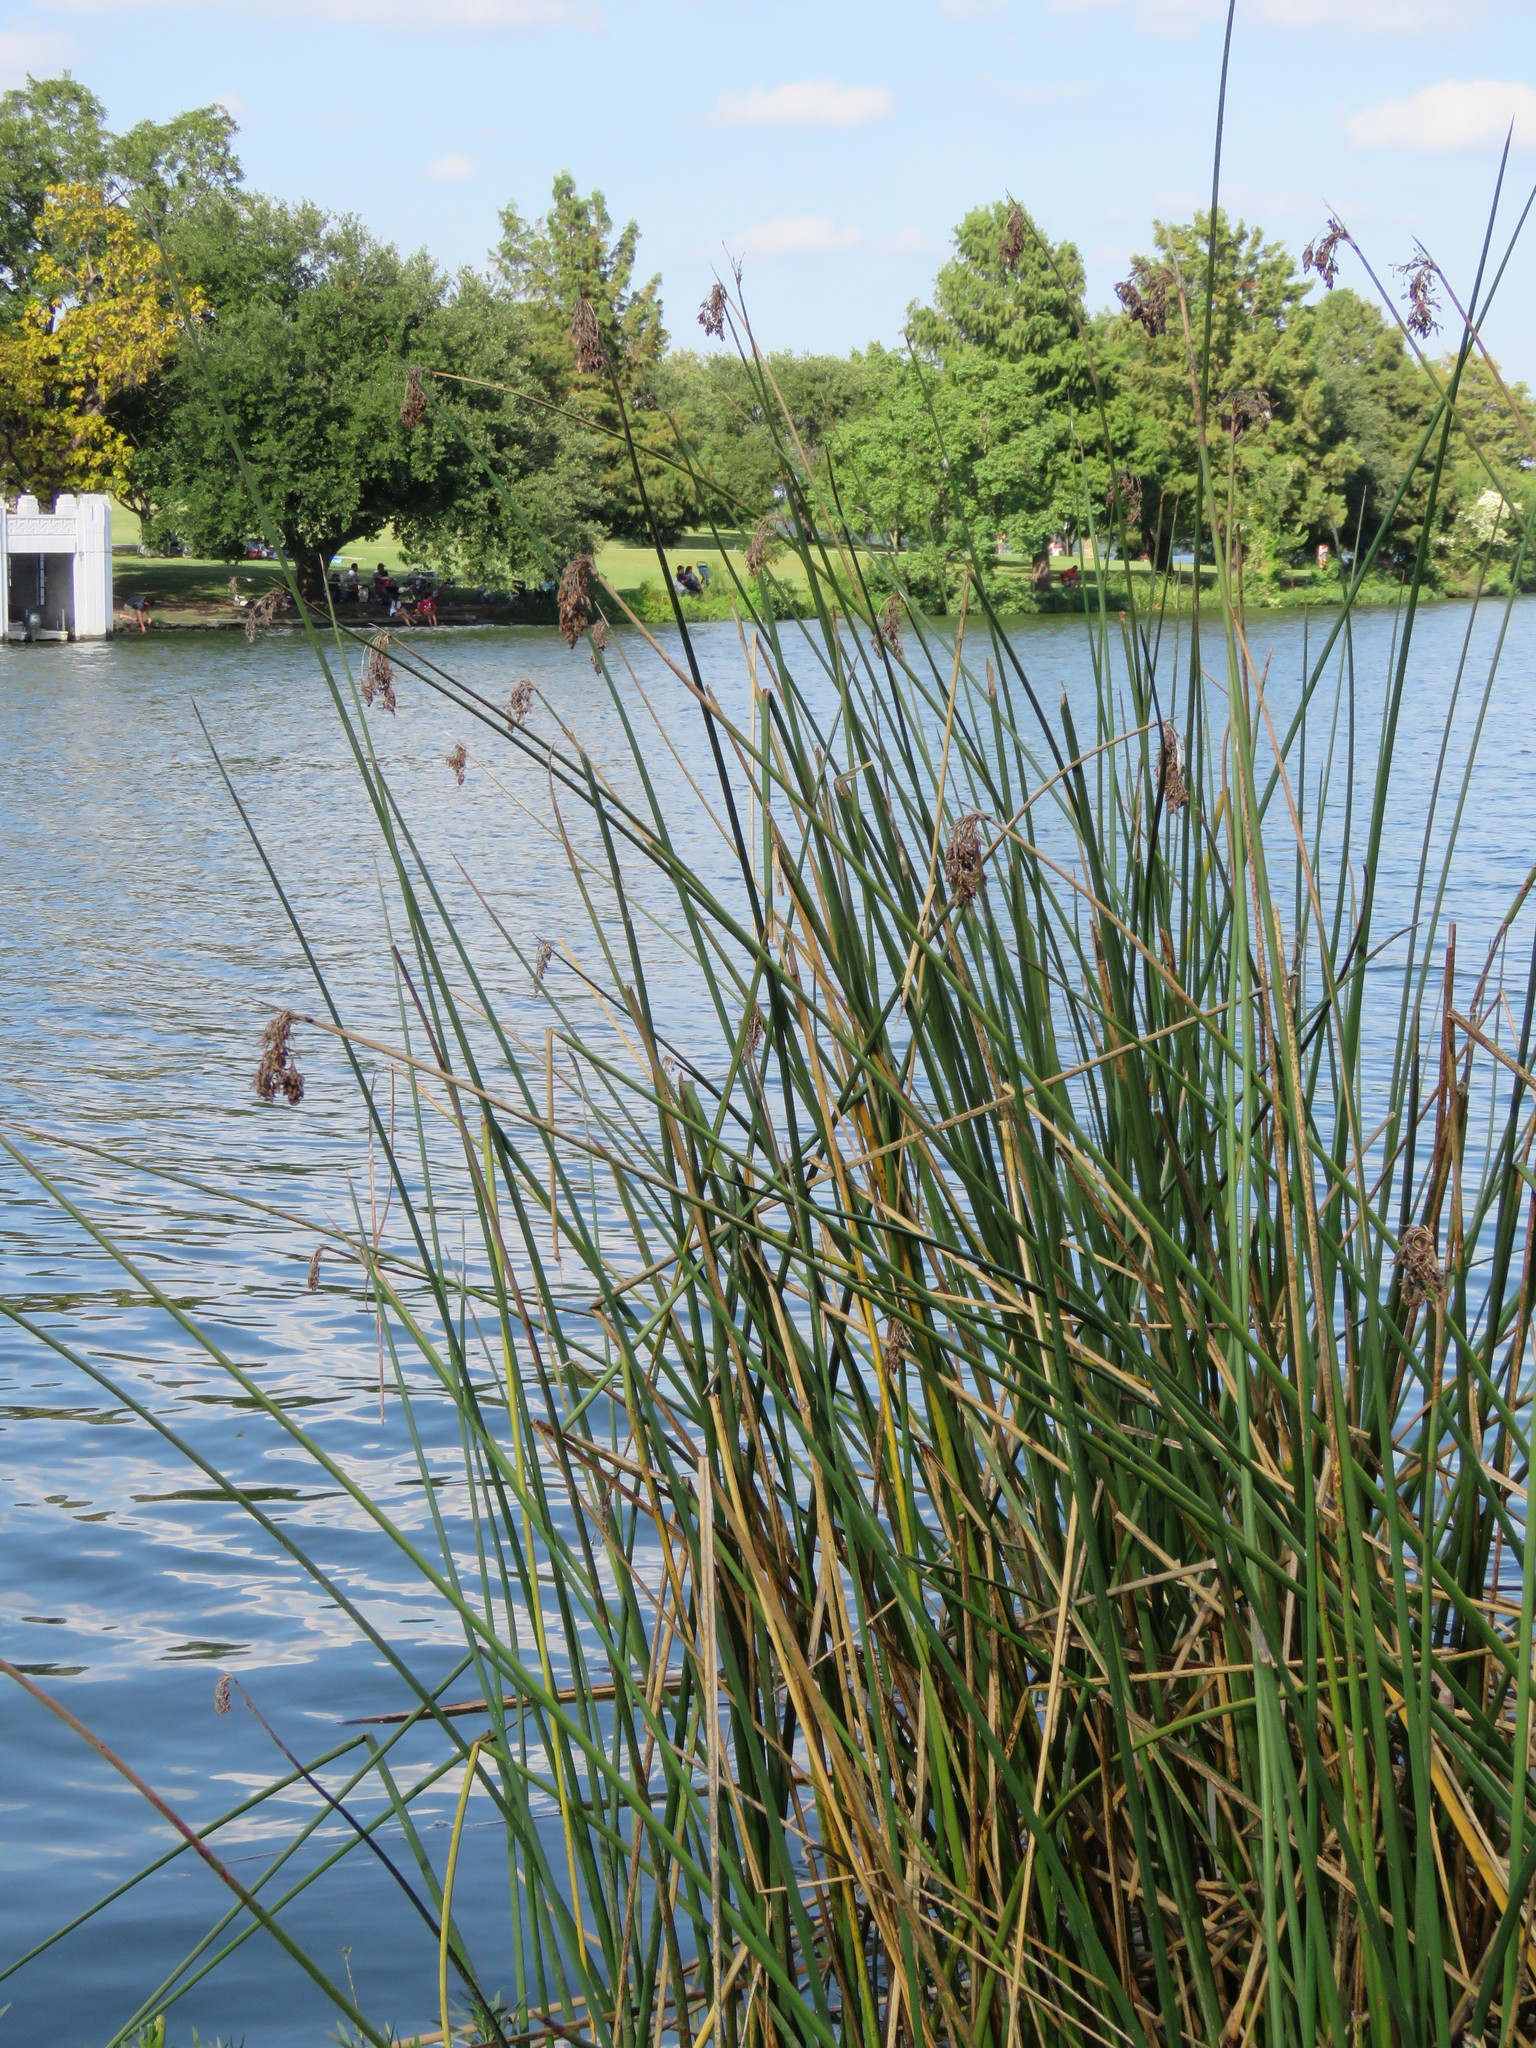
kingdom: Plantae
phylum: Tracheophyta
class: Liliopsida
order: Poales
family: Juncaceae
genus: Juncus
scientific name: Juncus effusus
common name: Soft rush
